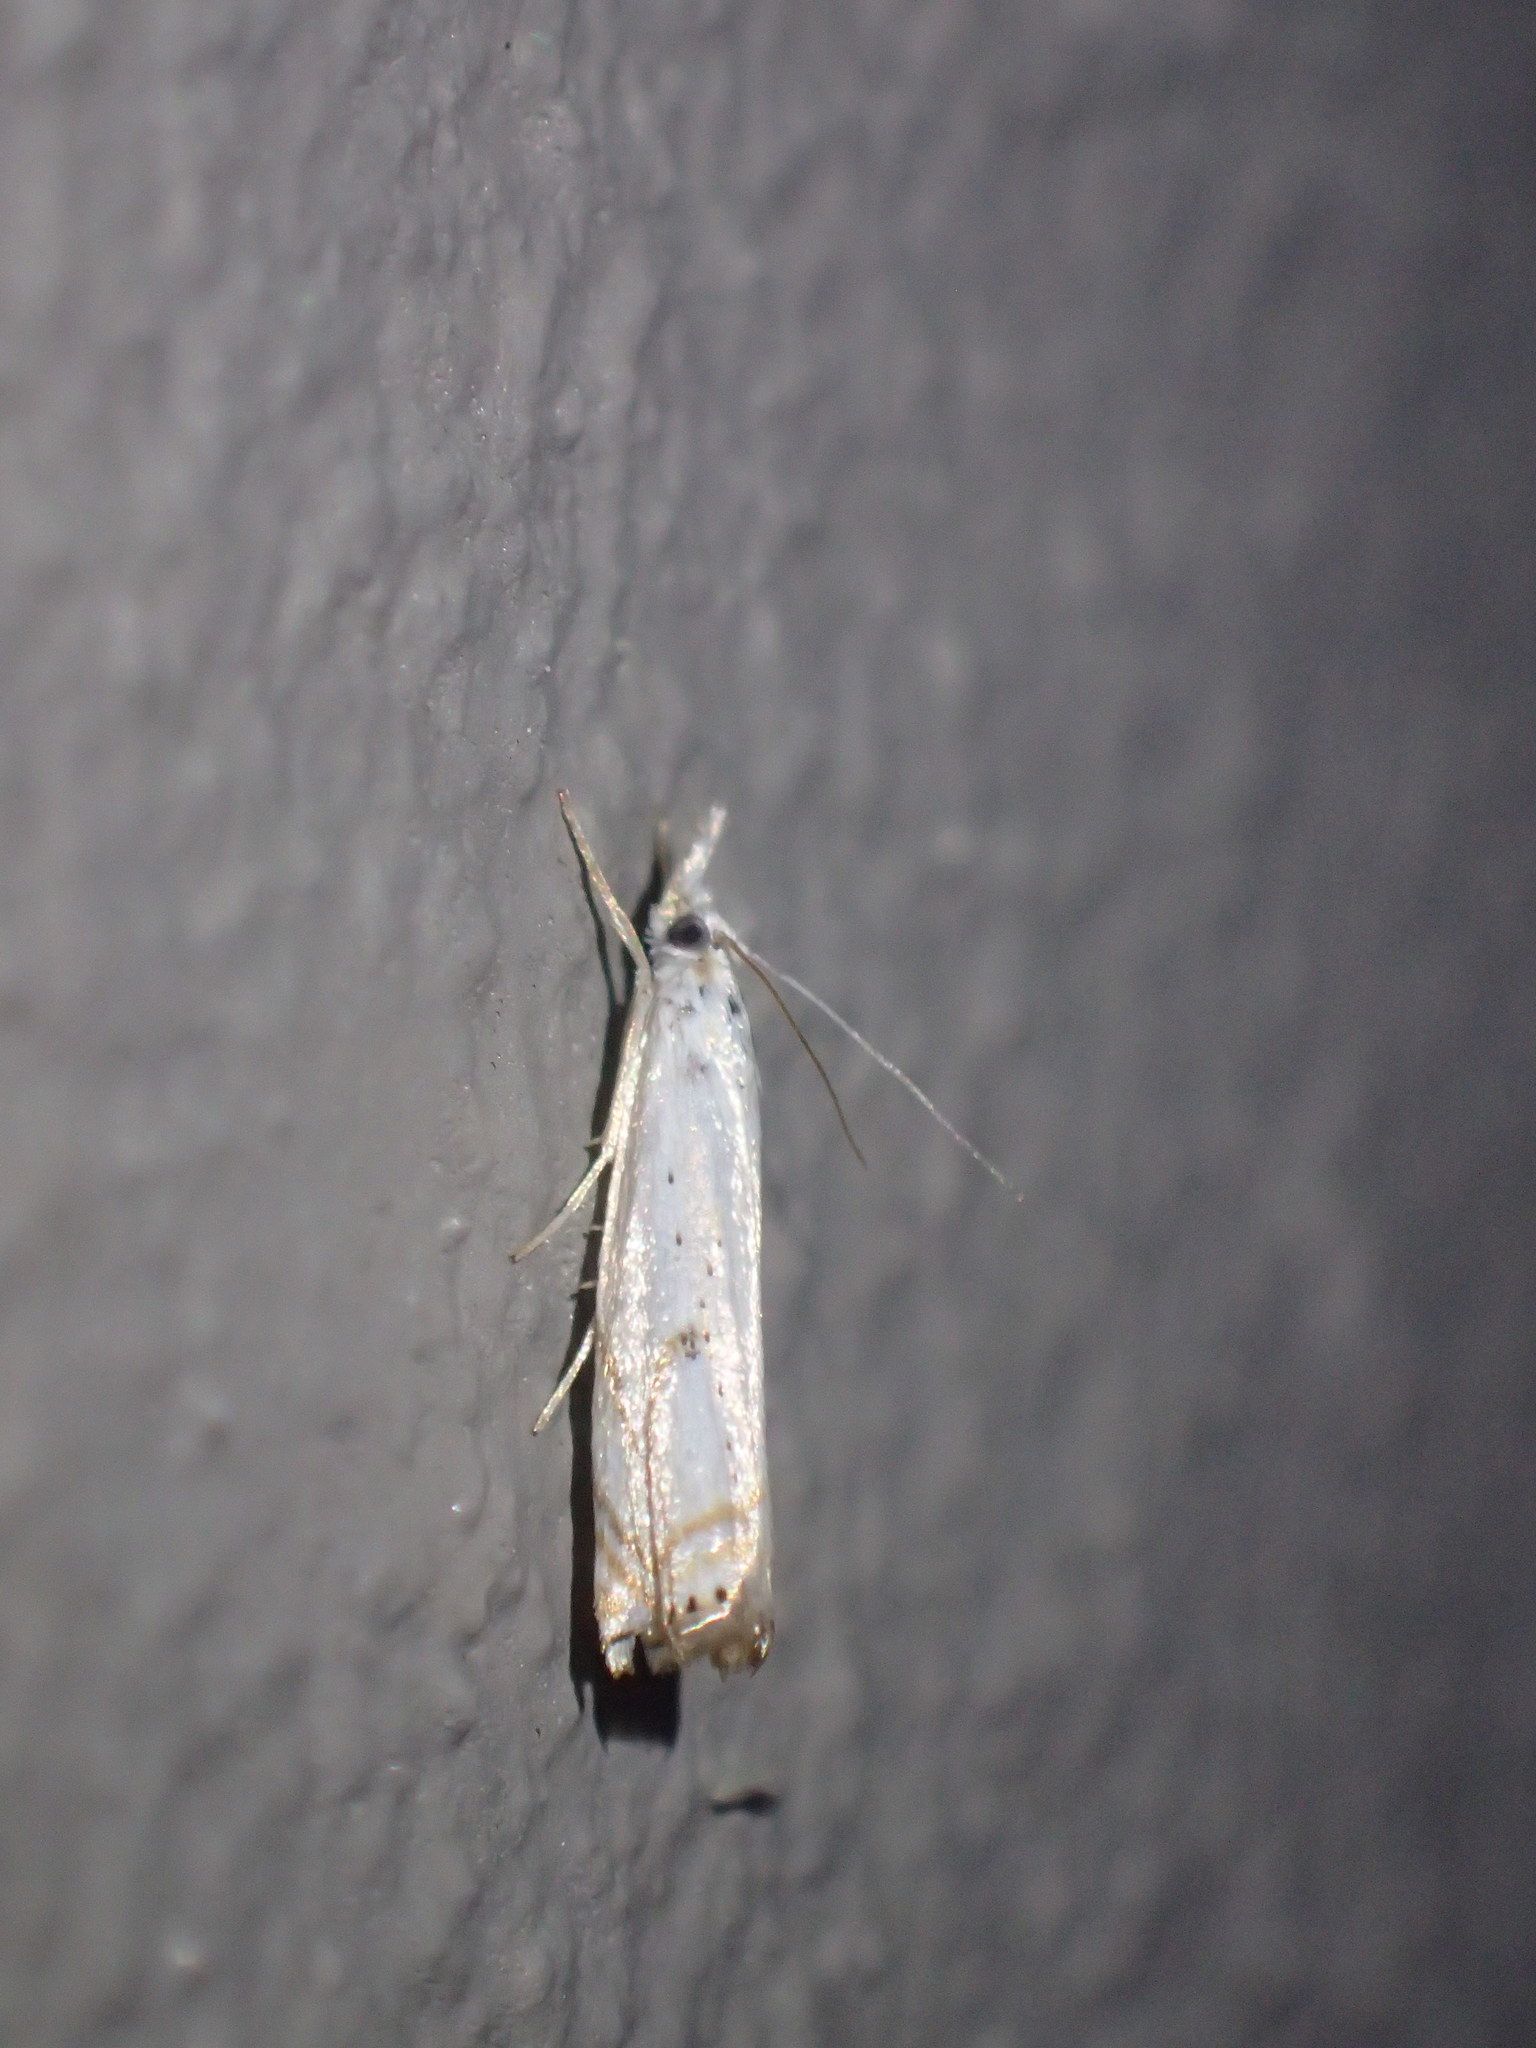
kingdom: Animalia
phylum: Arthropoda
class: Insecta
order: Lepidoptera
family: Crambidae
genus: Crambus
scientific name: Crambus albellus
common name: Small white grass-veneer
